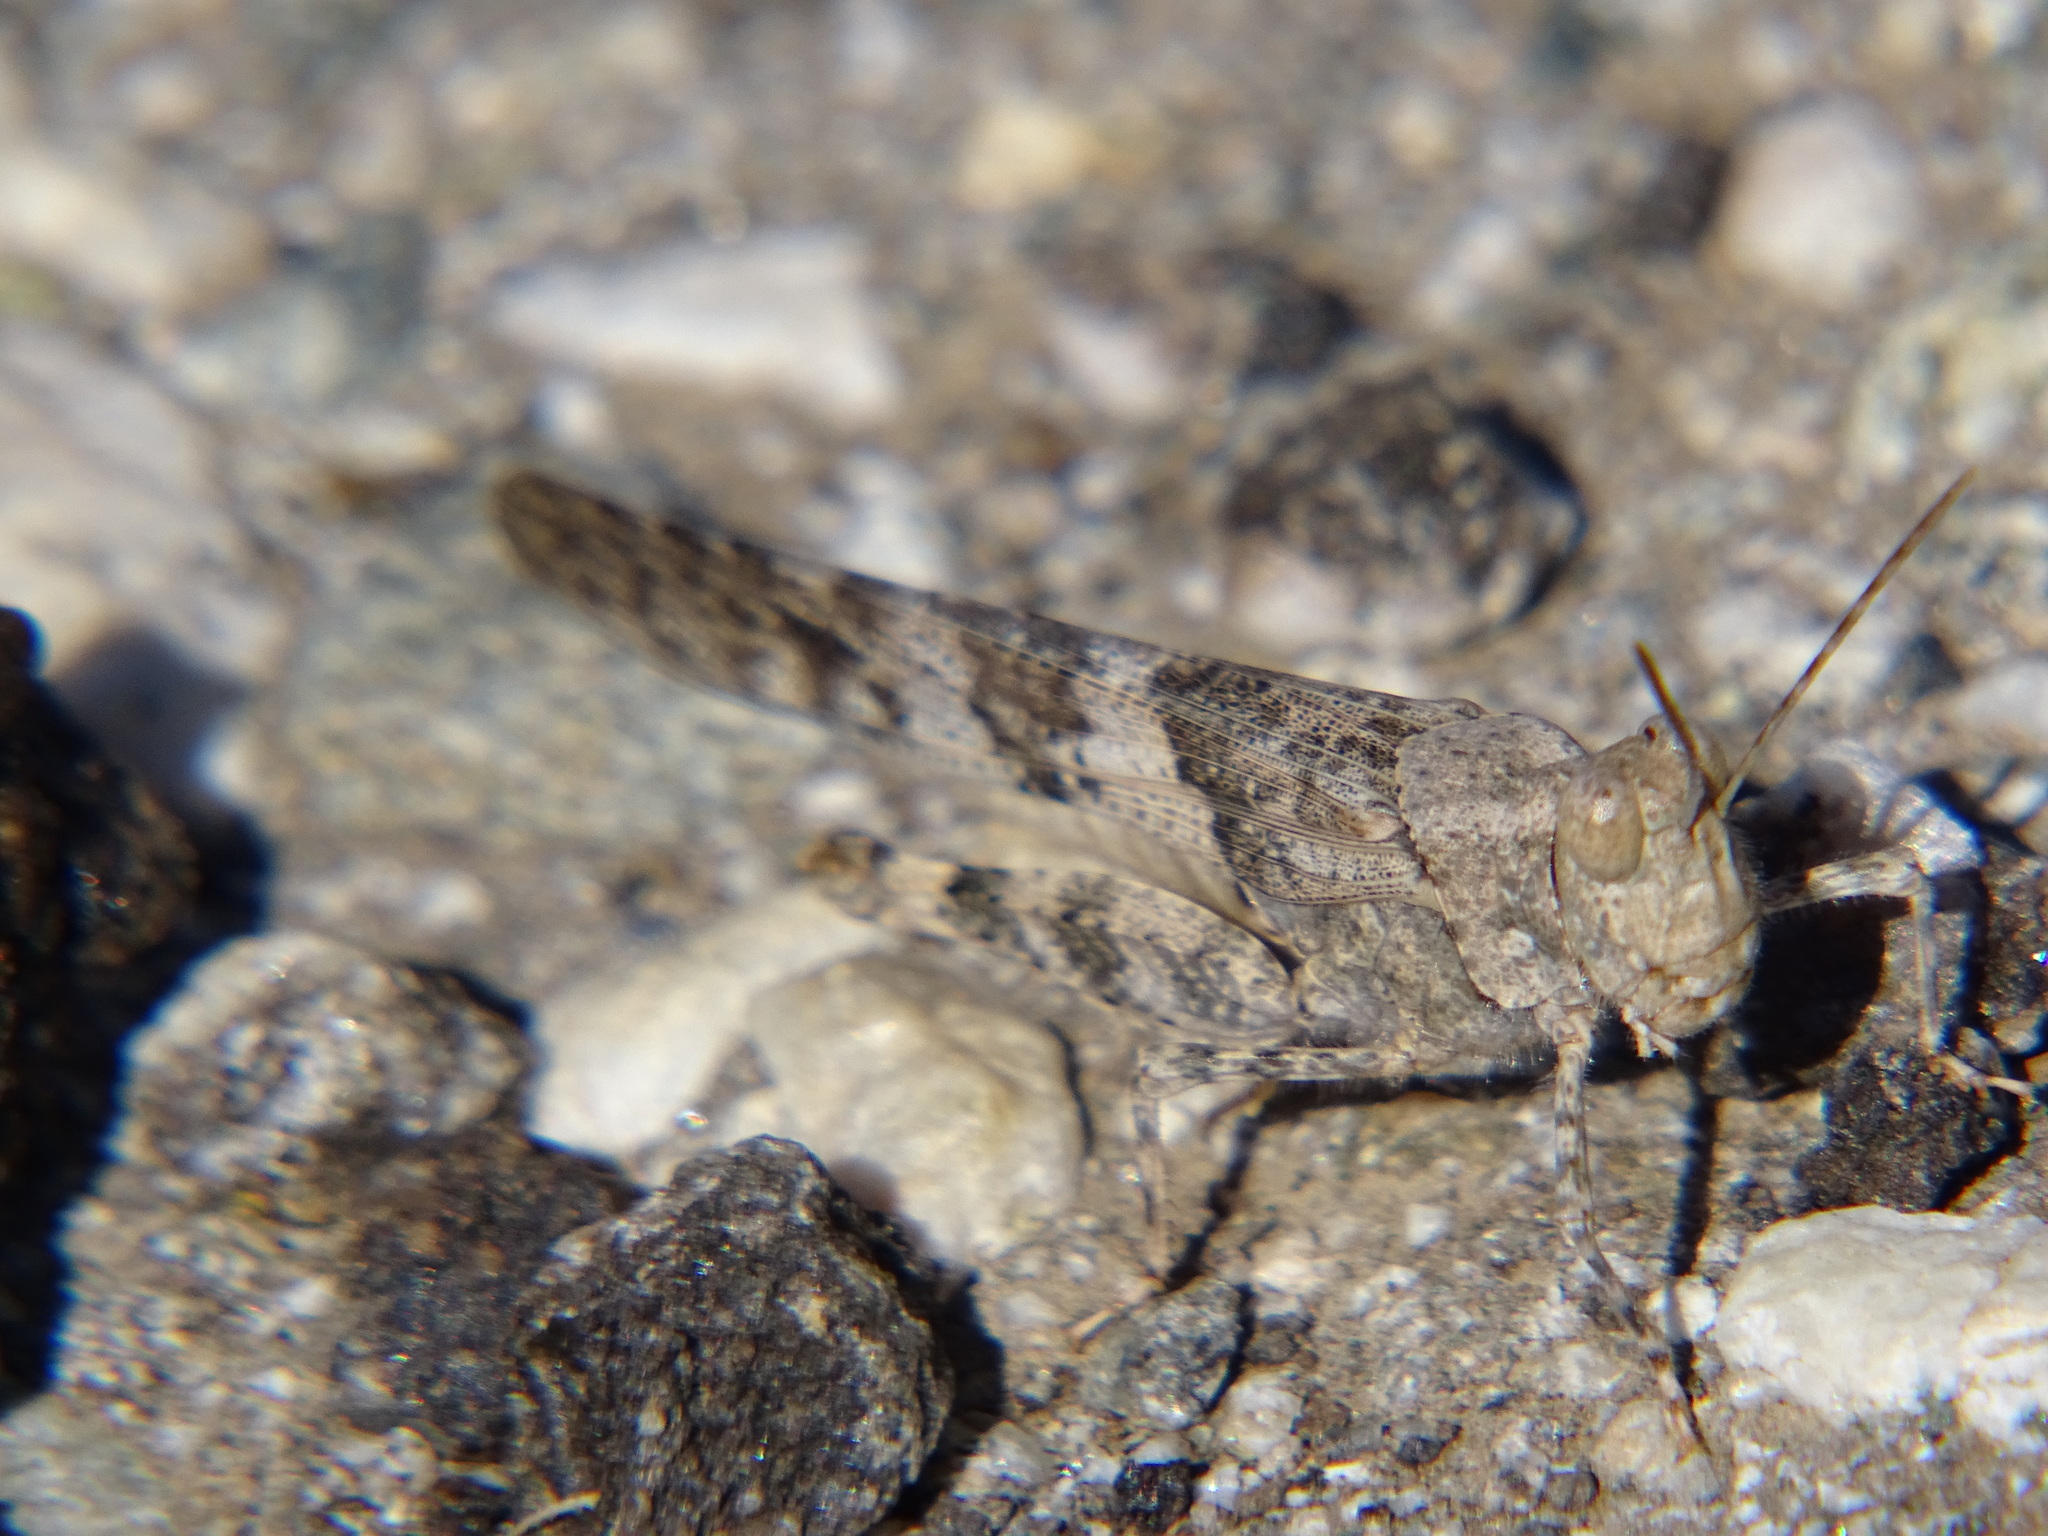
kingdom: Animalia
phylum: Arthropoda
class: Insecta
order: Orthoptera
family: Acrididae
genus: Trimerotropis
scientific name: Trimerotropis pallidipennis
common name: Pallid-winged grasshopper
